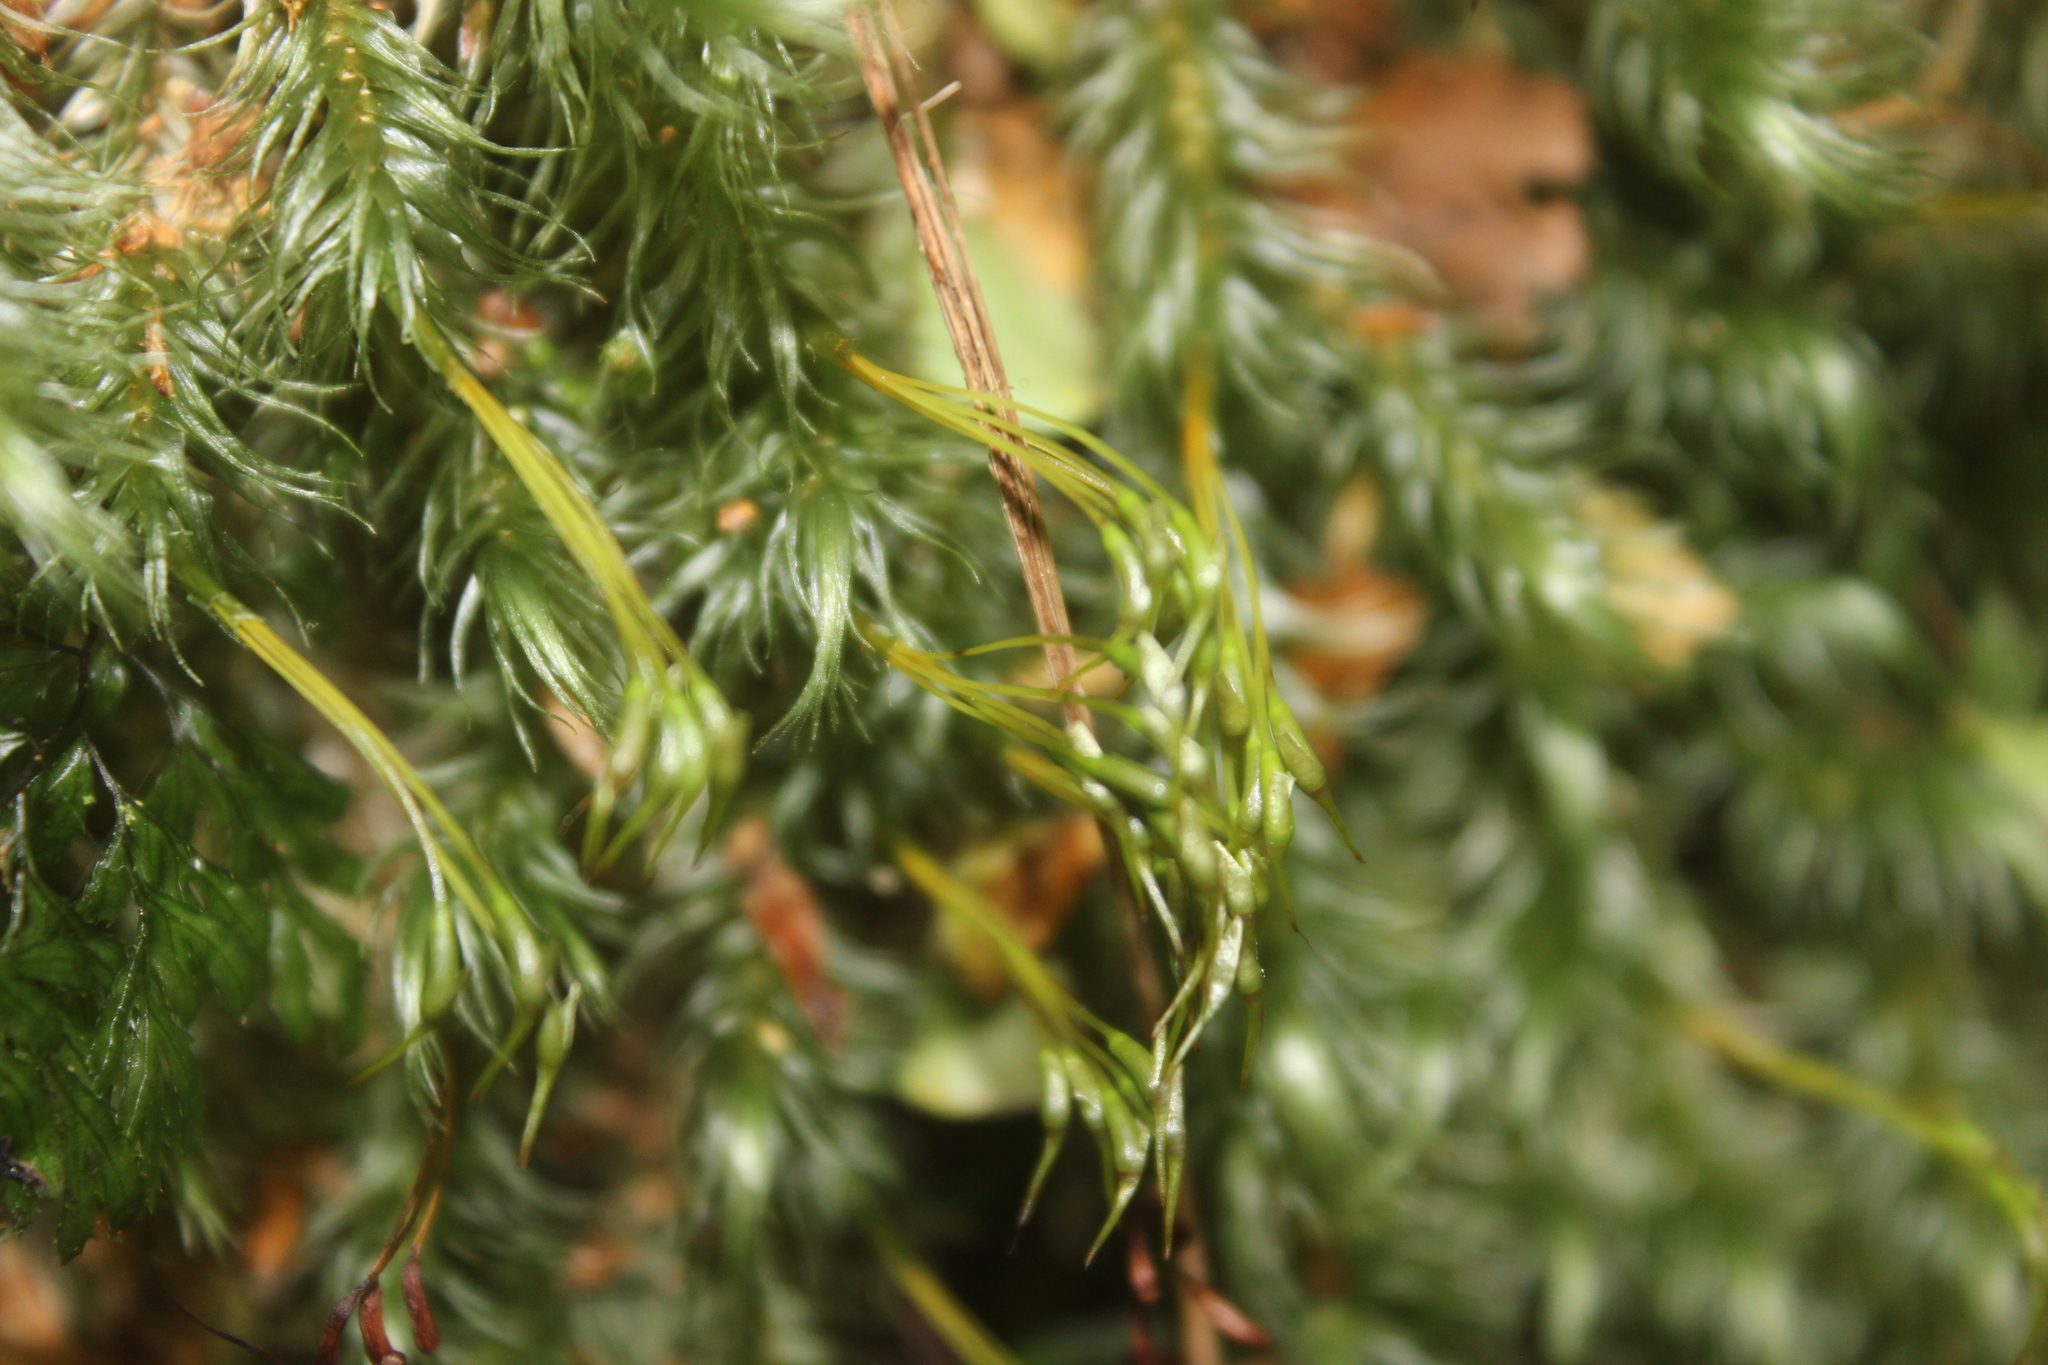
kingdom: Plantae
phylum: Bryophyta
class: Bryopsida
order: Dicranales
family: Dicranaceae
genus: Dicranoloma
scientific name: Dicranoloma plurisetum
